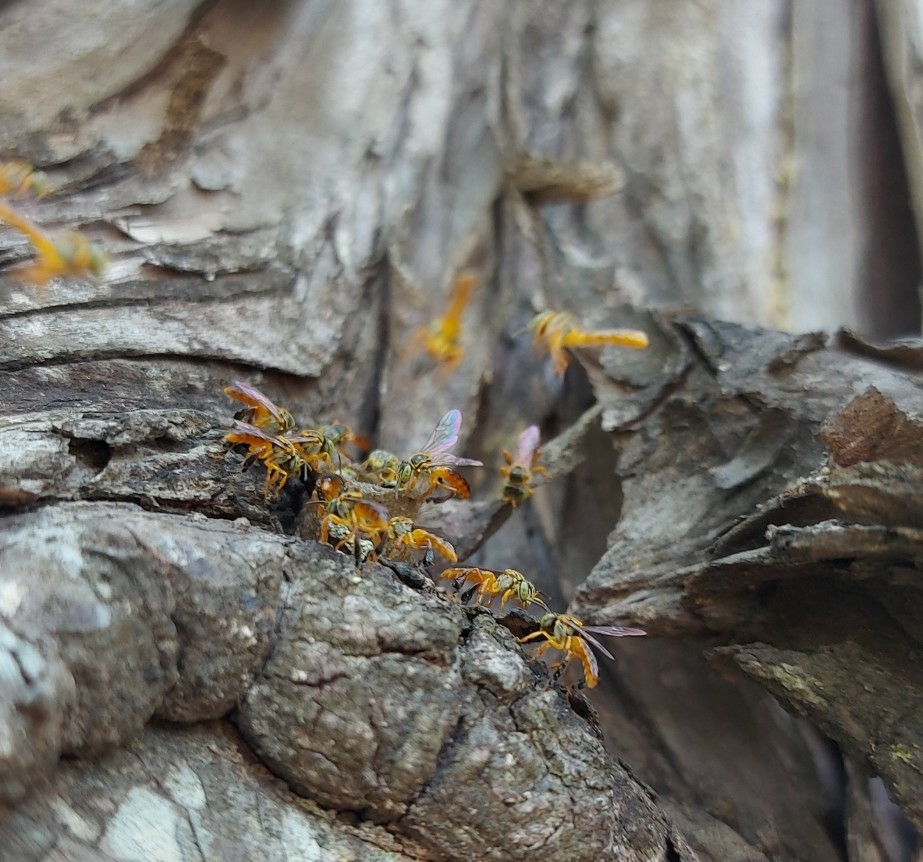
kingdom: Animalia
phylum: Arthropoda
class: Insecta
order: Hymenoptera
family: Apidae
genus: Tetragonisca
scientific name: Tetragonisca angustula
